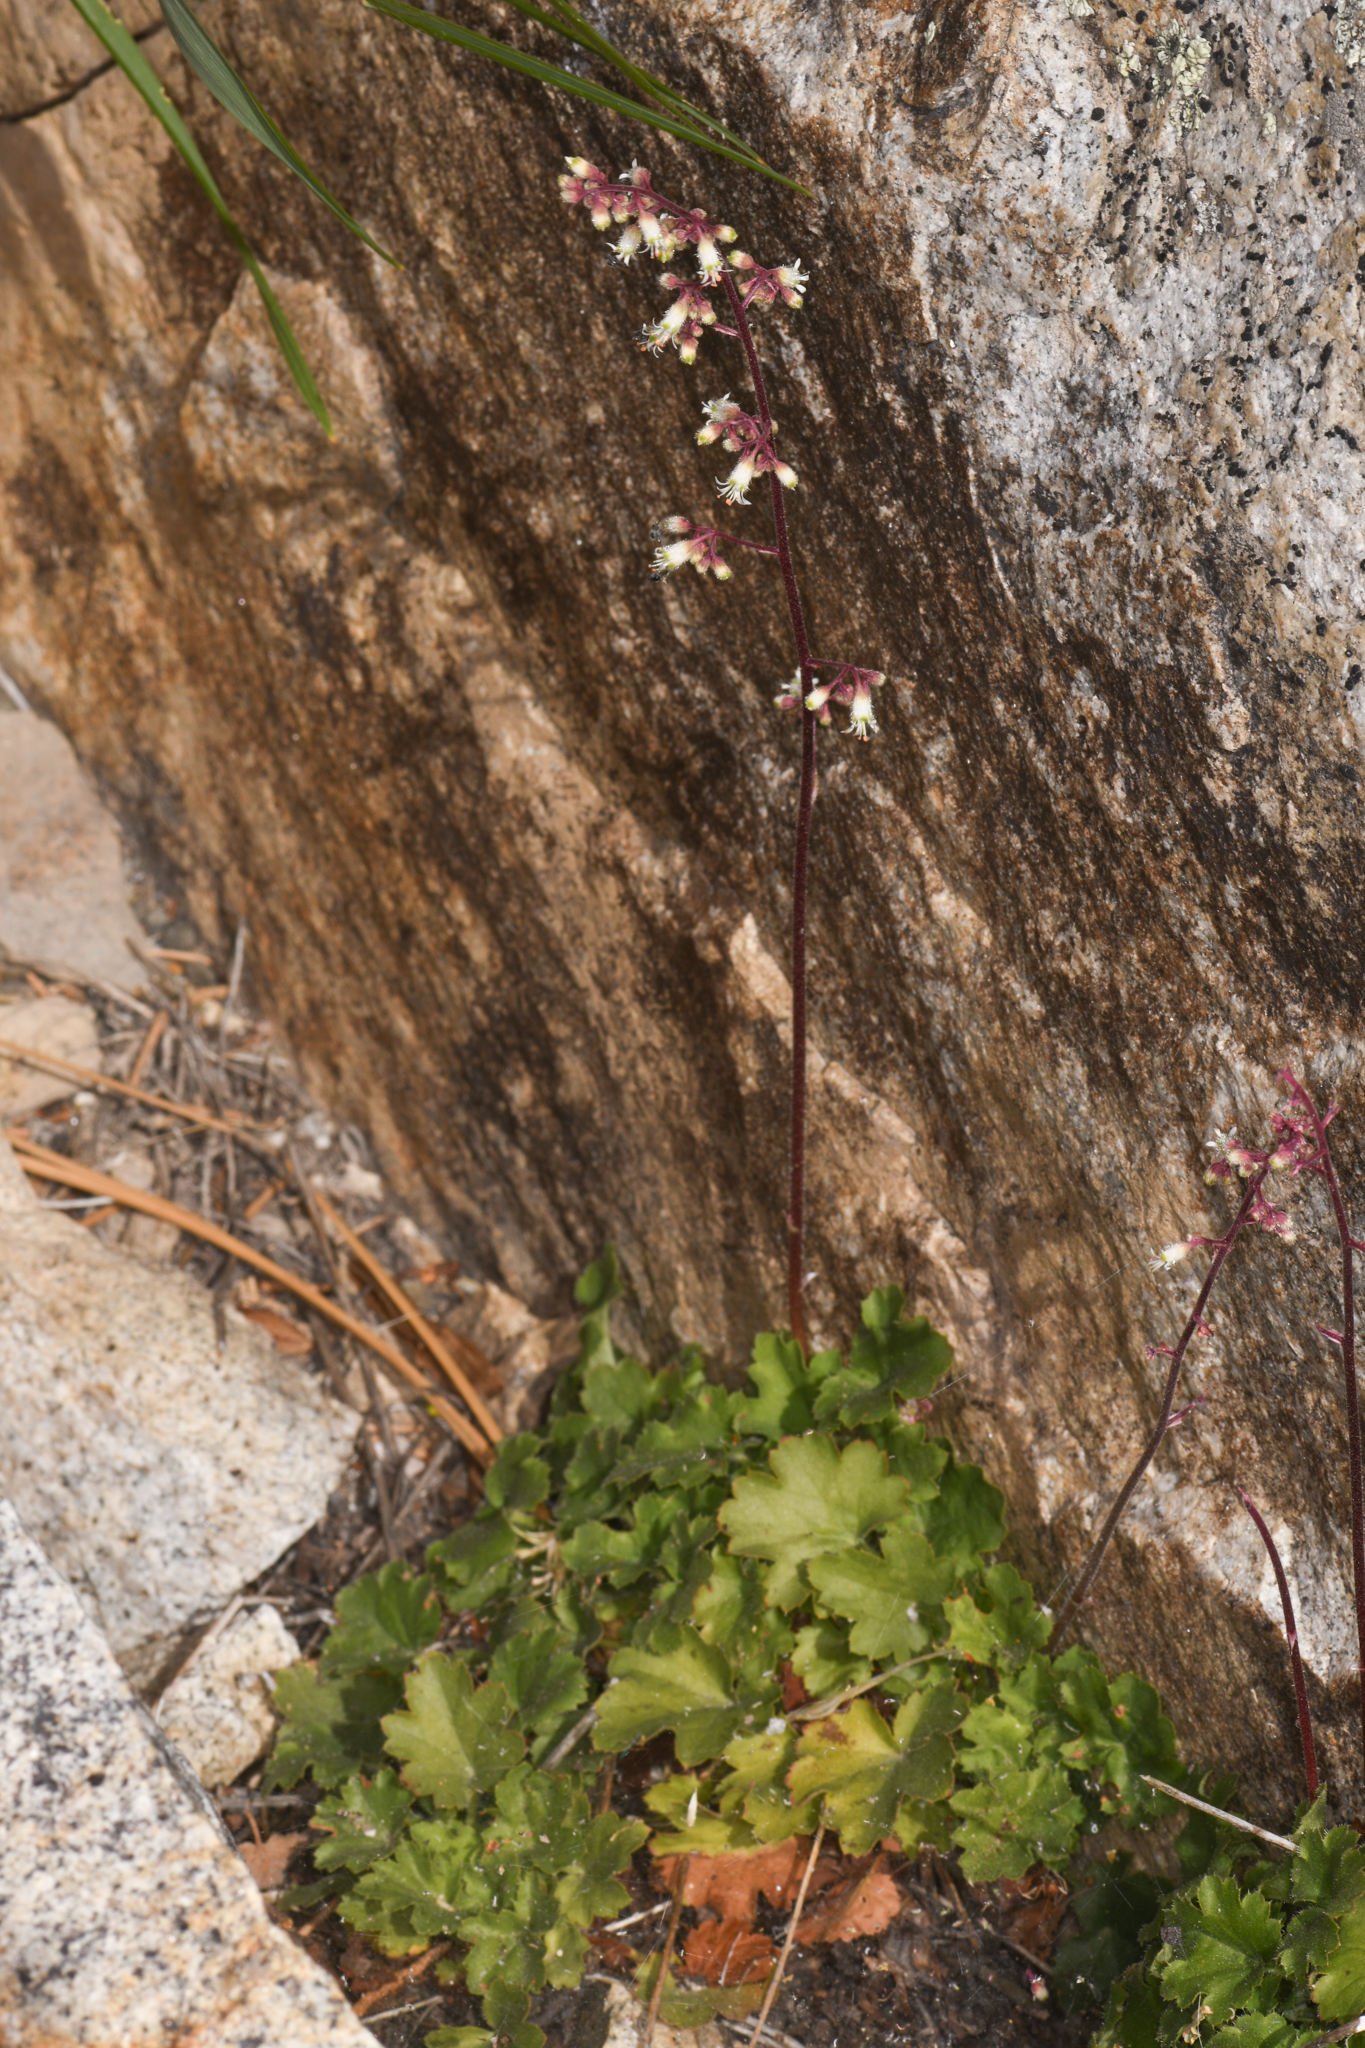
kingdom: Plantae
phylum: Tracheophyta
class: Magnoliopsida
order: Saxifragales
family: Saxifragaceae
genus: Heuchera
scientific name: Heuchera rubescens
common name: Jack-o'the-rocks
